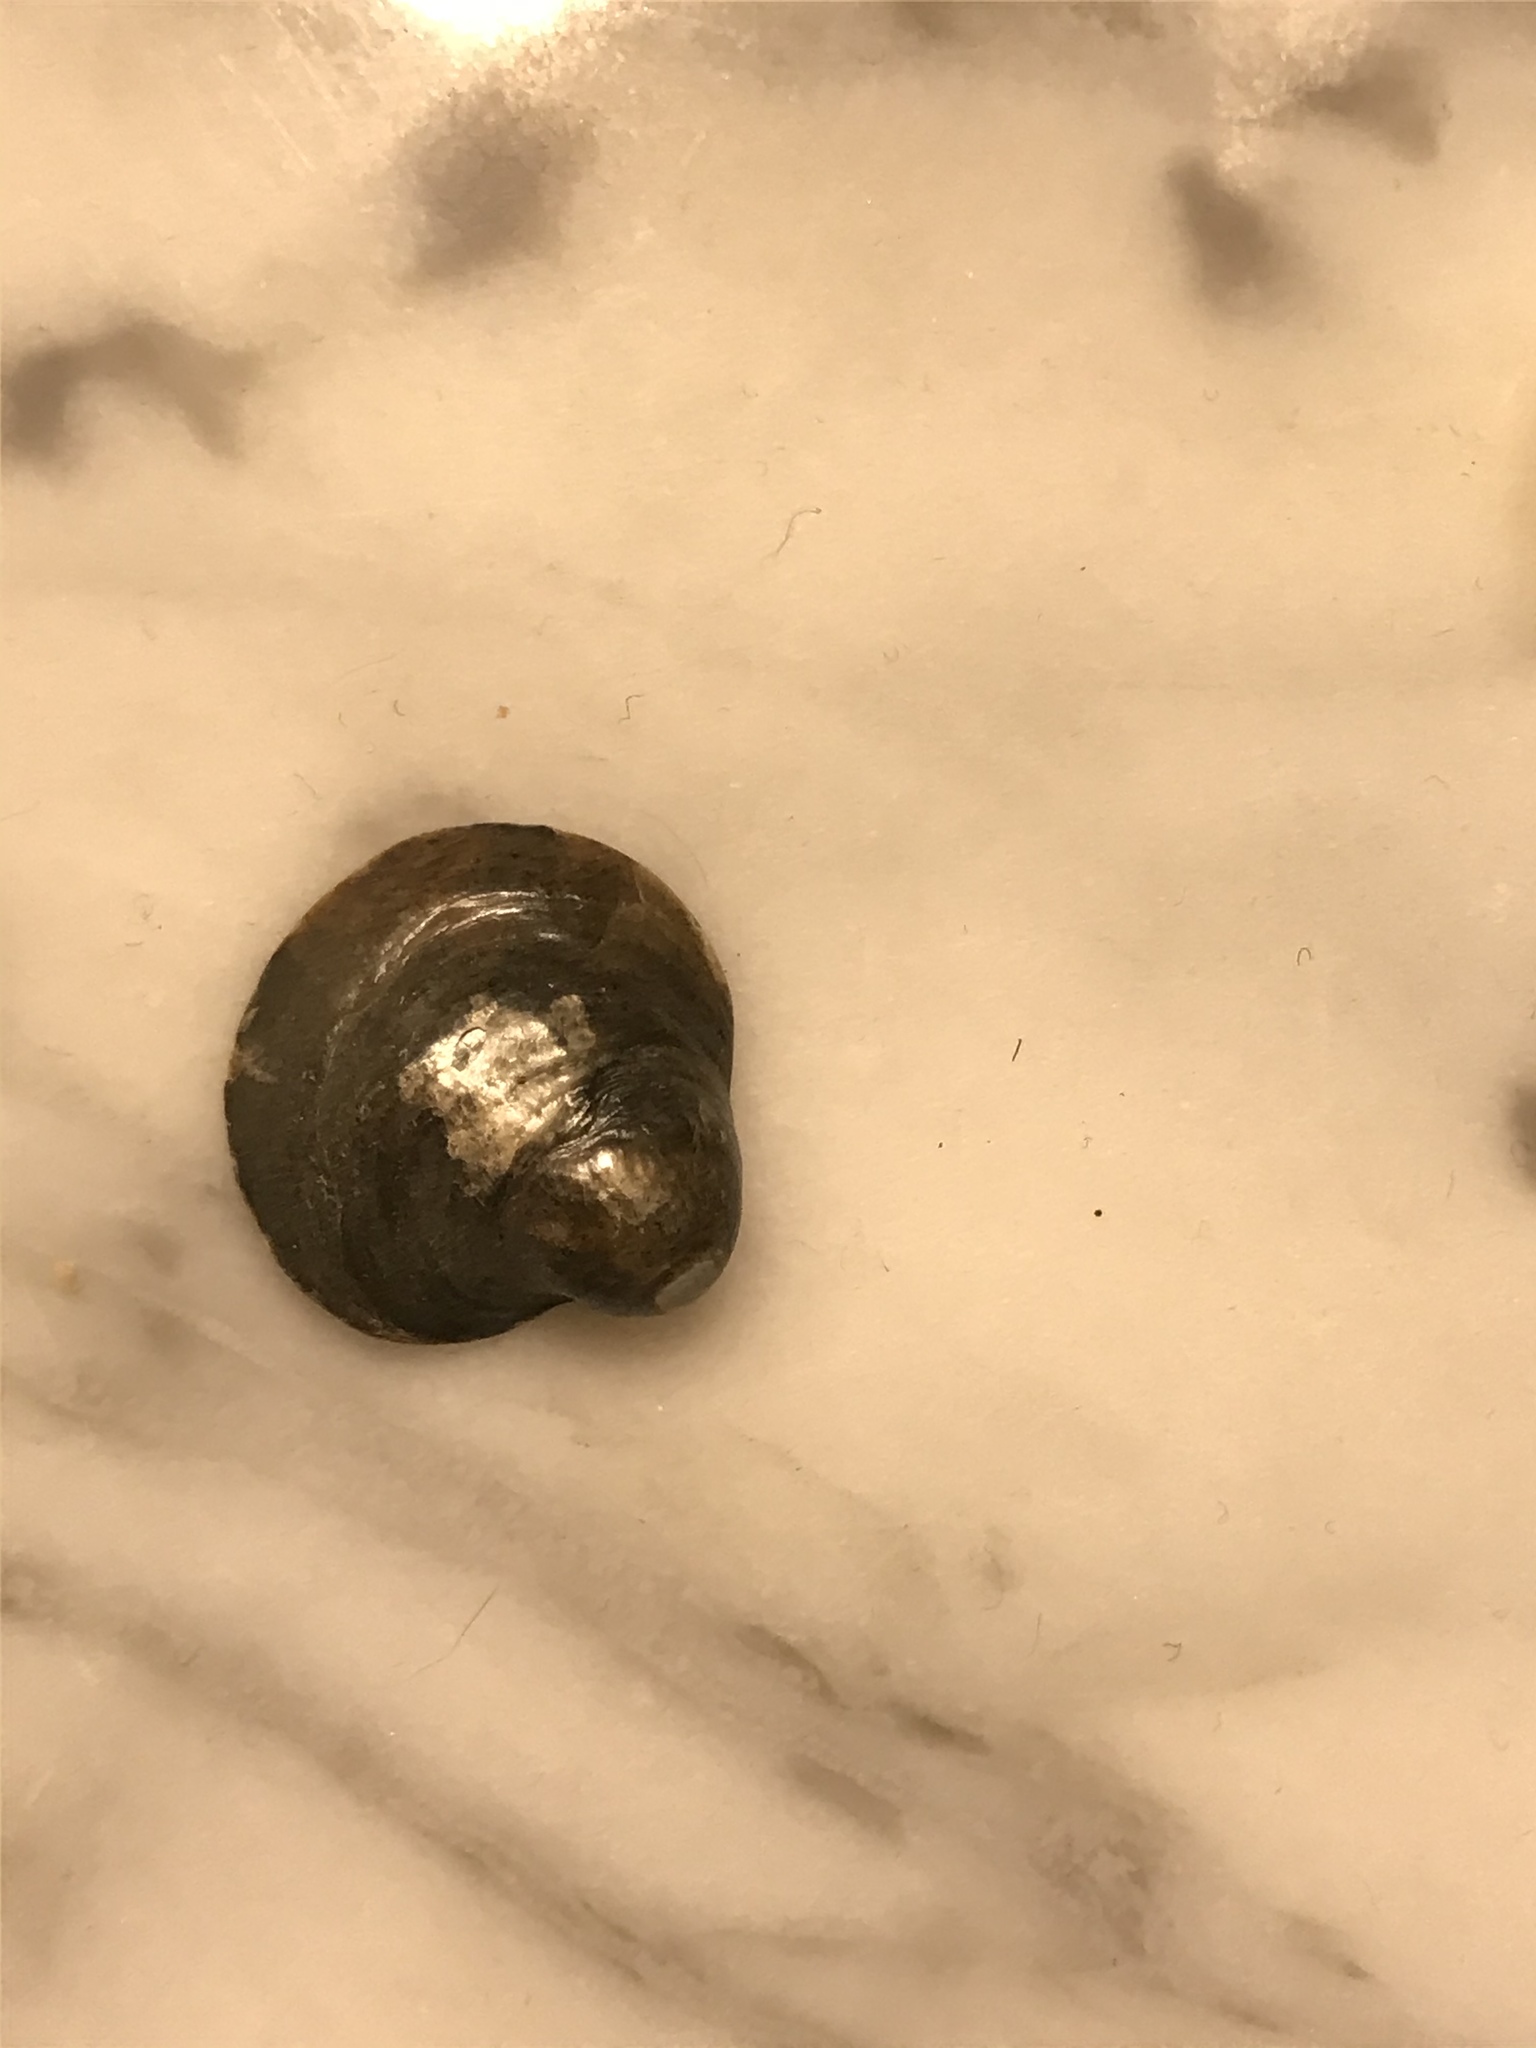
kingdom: Animalia
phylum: Mollusca
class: Bivalvia
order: Pectinida
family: Anomiidae
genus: Anomia
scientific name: Anomia simplex
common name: Common jingle shell
